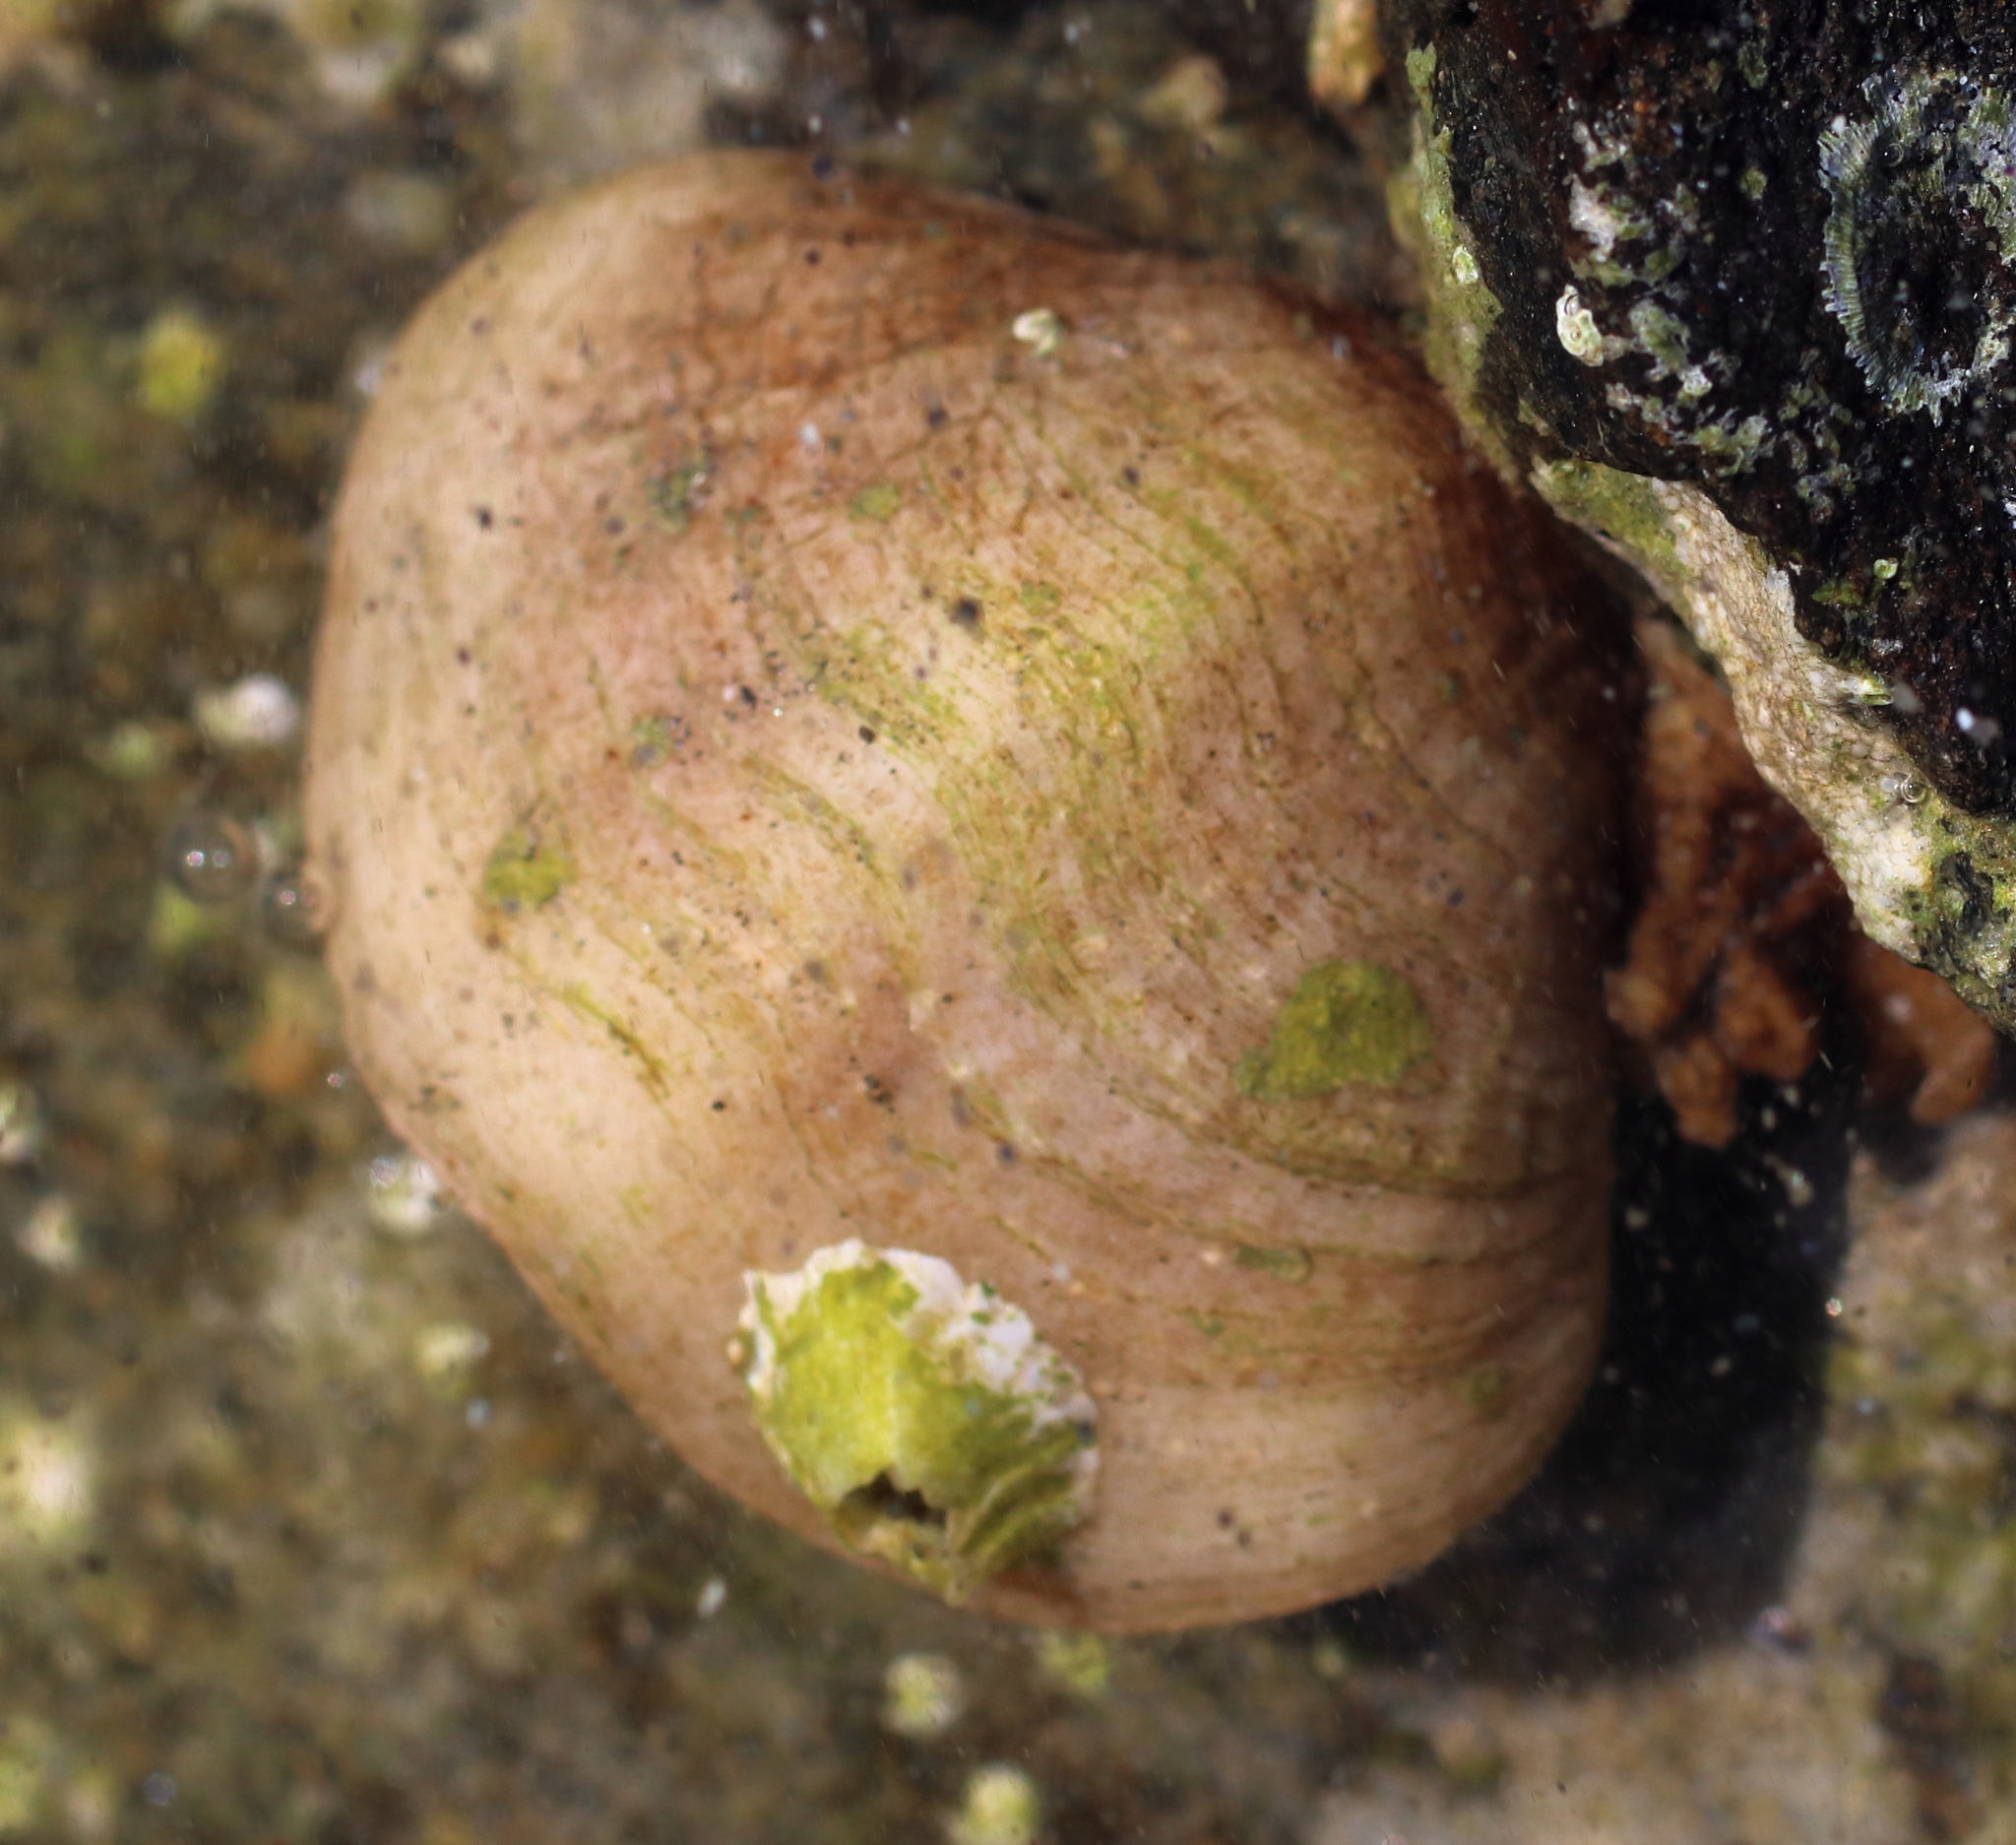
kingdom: Animalia
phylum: Brachiopoda
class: Rhynchonellata
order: Terebratulida
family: Terebrataliidae
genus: Terebratalia
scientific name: Terebratalia transversa
